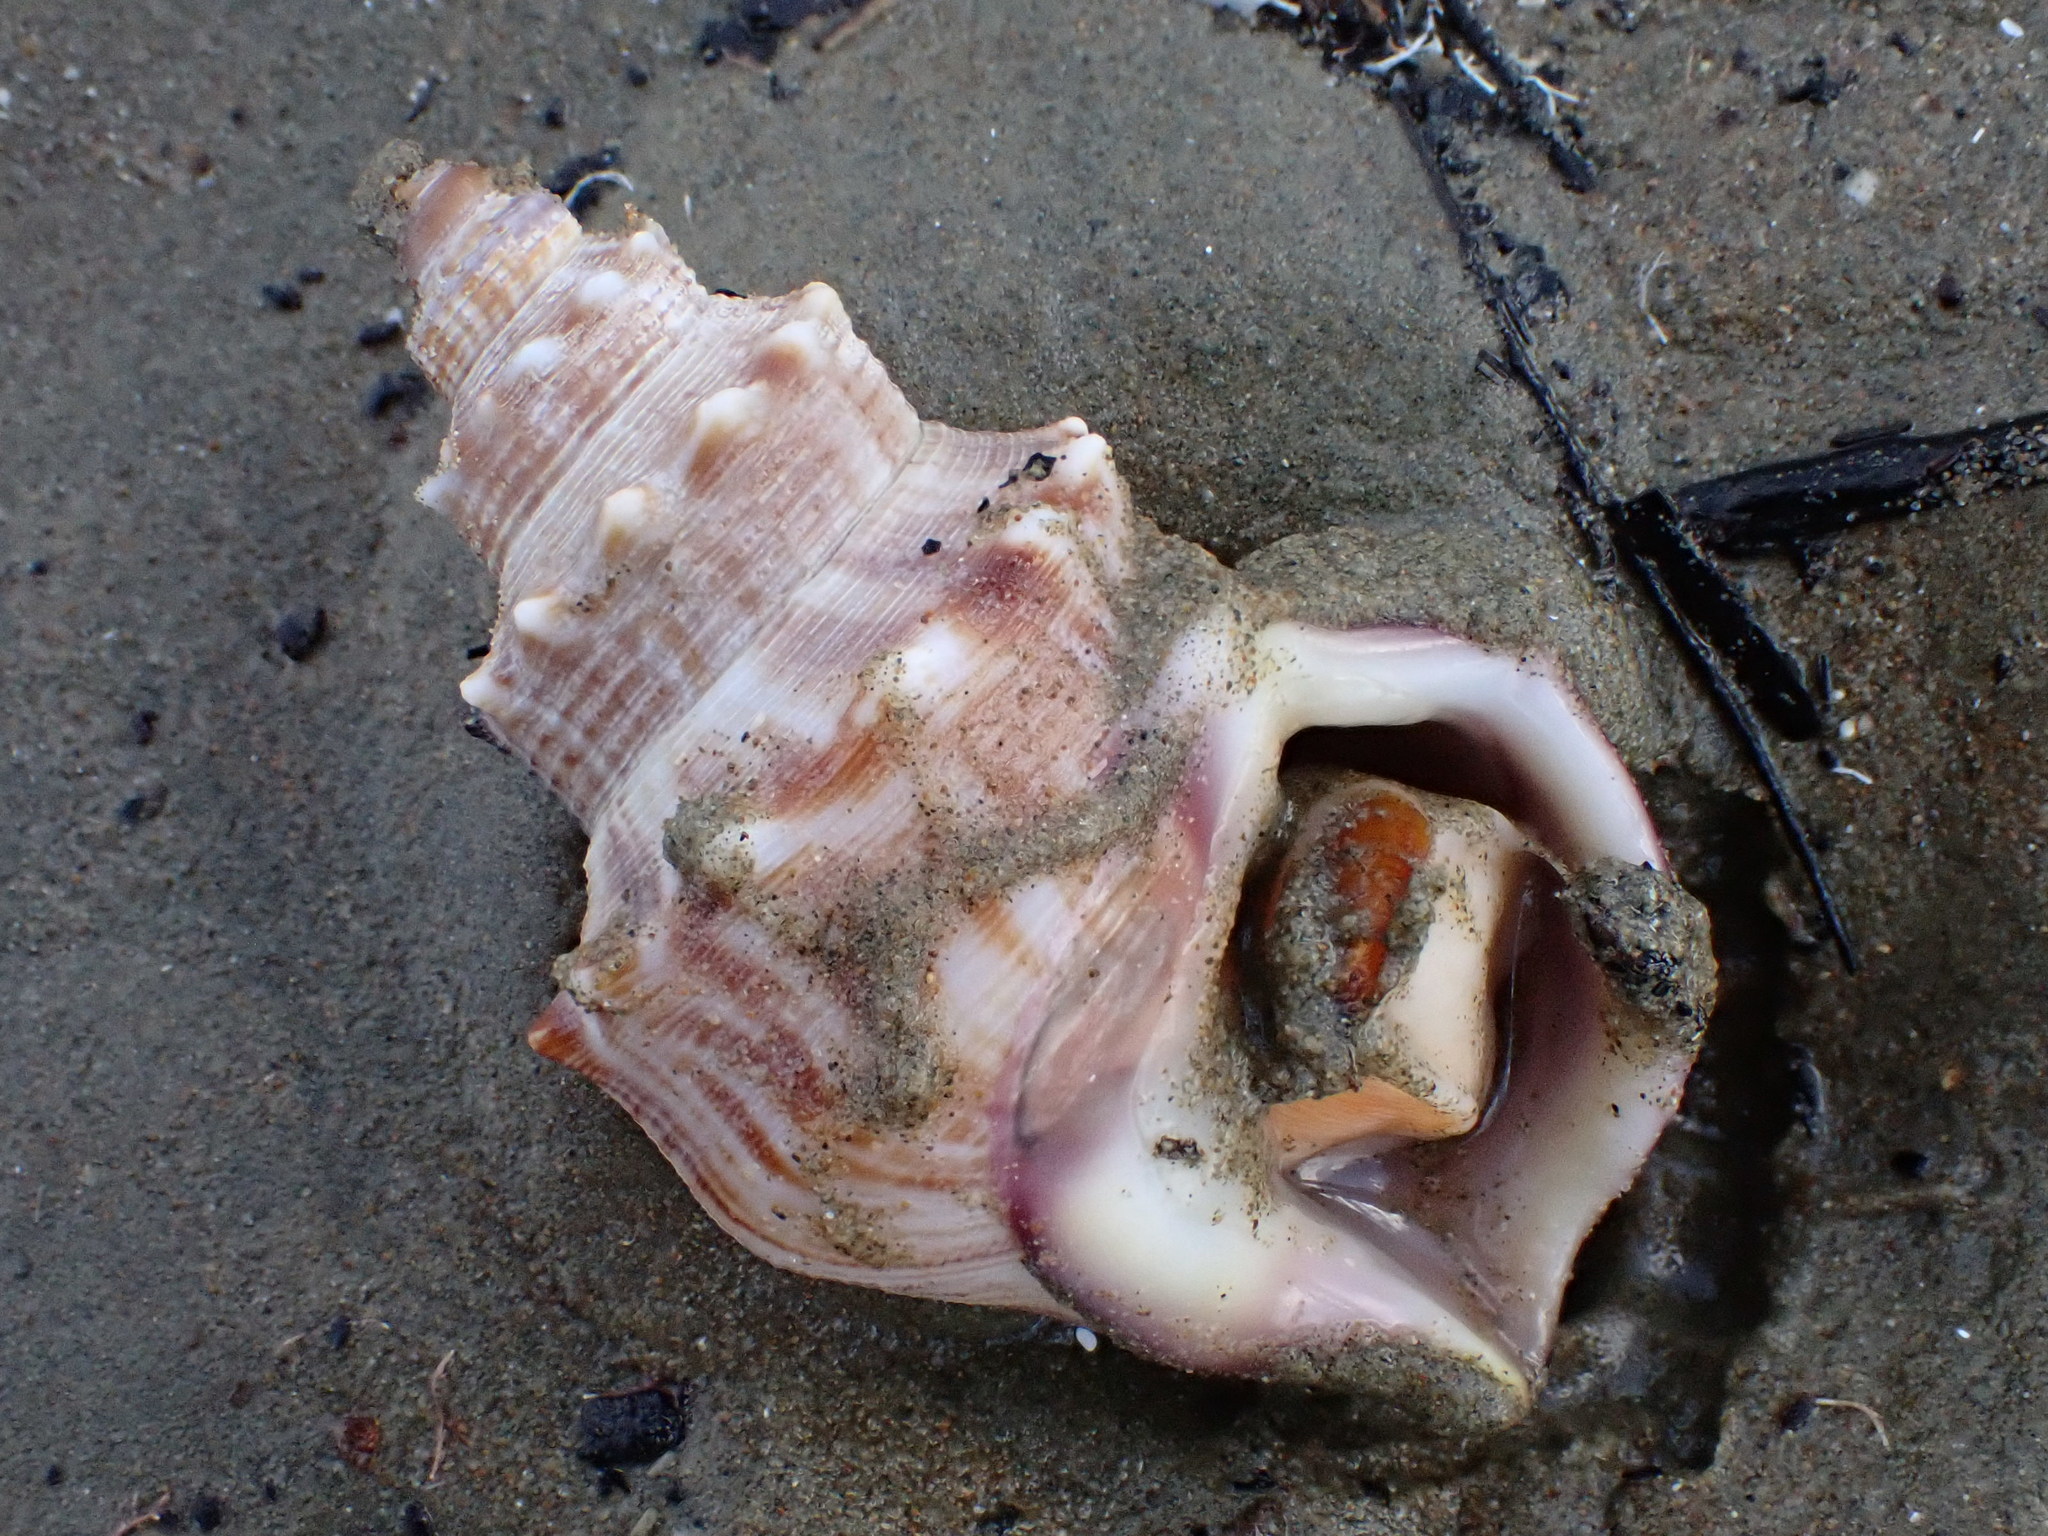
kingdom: Animalia
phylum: Mollusca
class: Gastropoda
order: Littorinimorpha
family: Struthiolariidae
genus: Struthiolaria
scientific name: Struthiolaria papulosa
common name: Large ostrich foot
